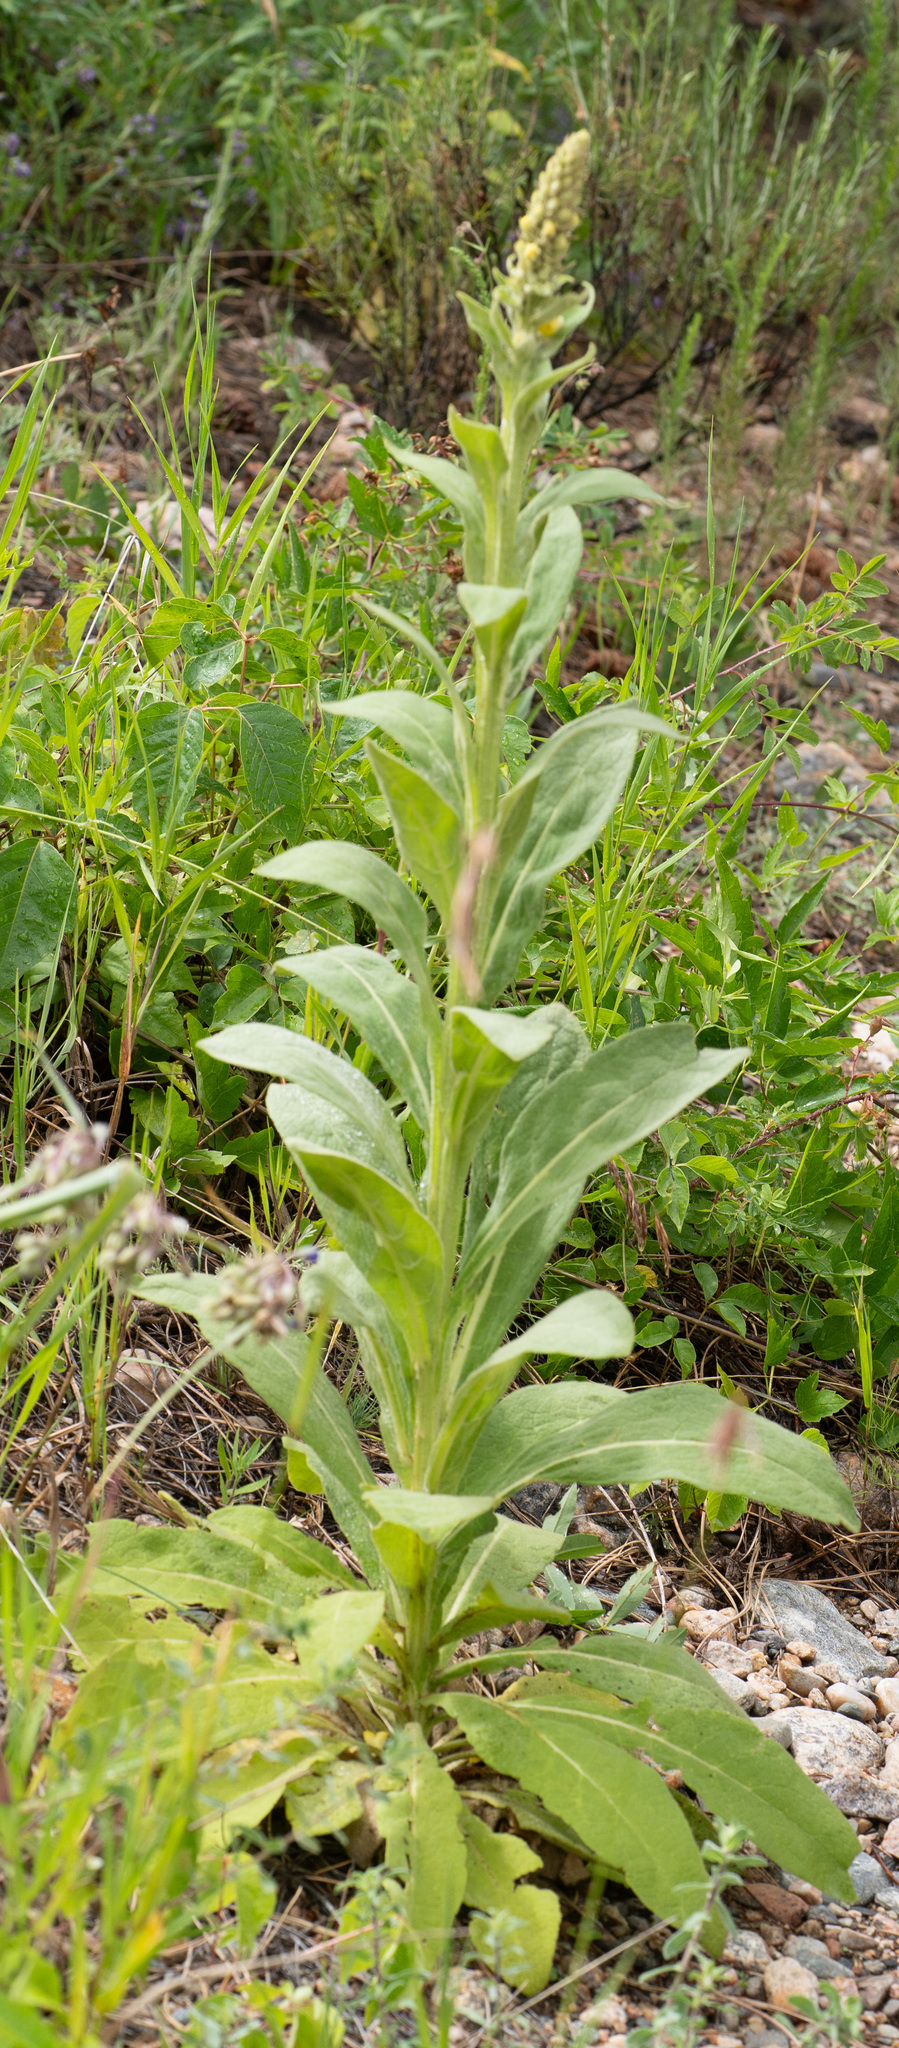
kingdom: Plantae
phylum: Tracheophyta
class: Magnoliopsida
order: Lamiales
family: Scrophulariaceae
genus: Verbascum
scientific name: Verbascum thapsus
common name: Common mullein
